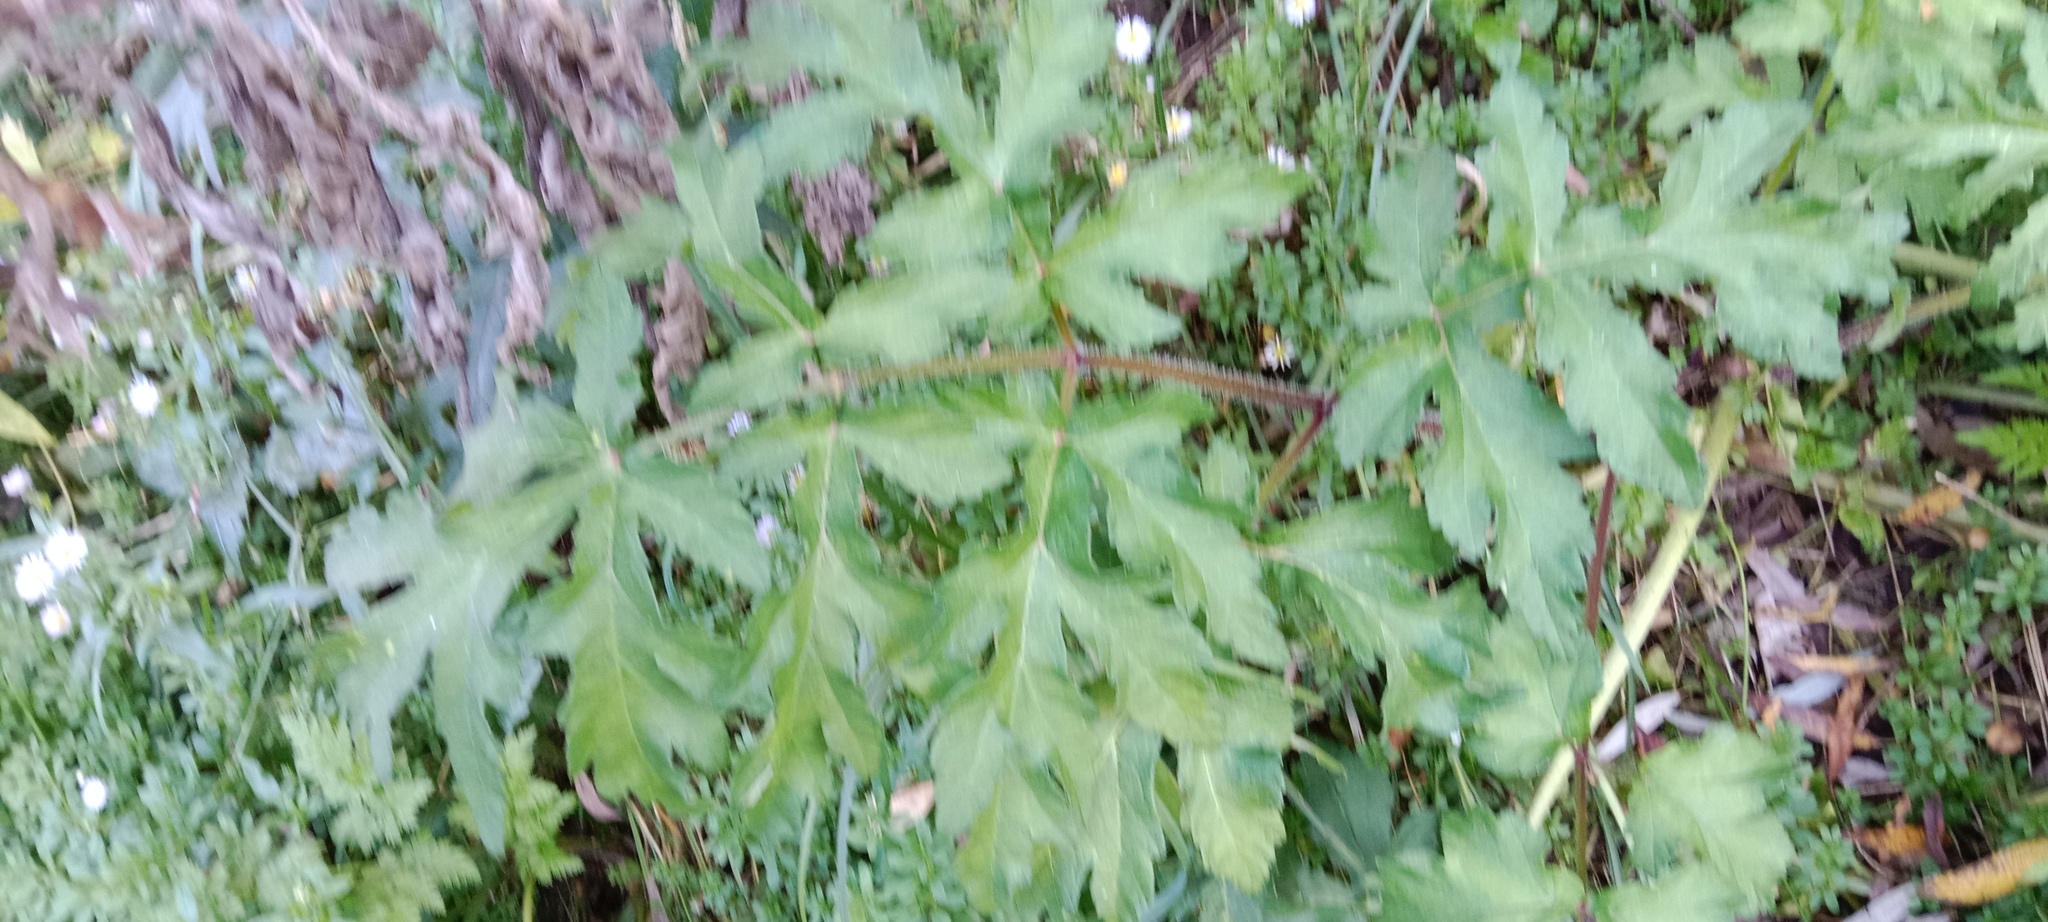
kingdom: Plantae
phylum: Tracheophyta
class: Magnoliopsida
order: Apiales
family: Apiaceae
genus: Heracleum
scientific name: Heracleum sphondylium
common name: Hogweed
